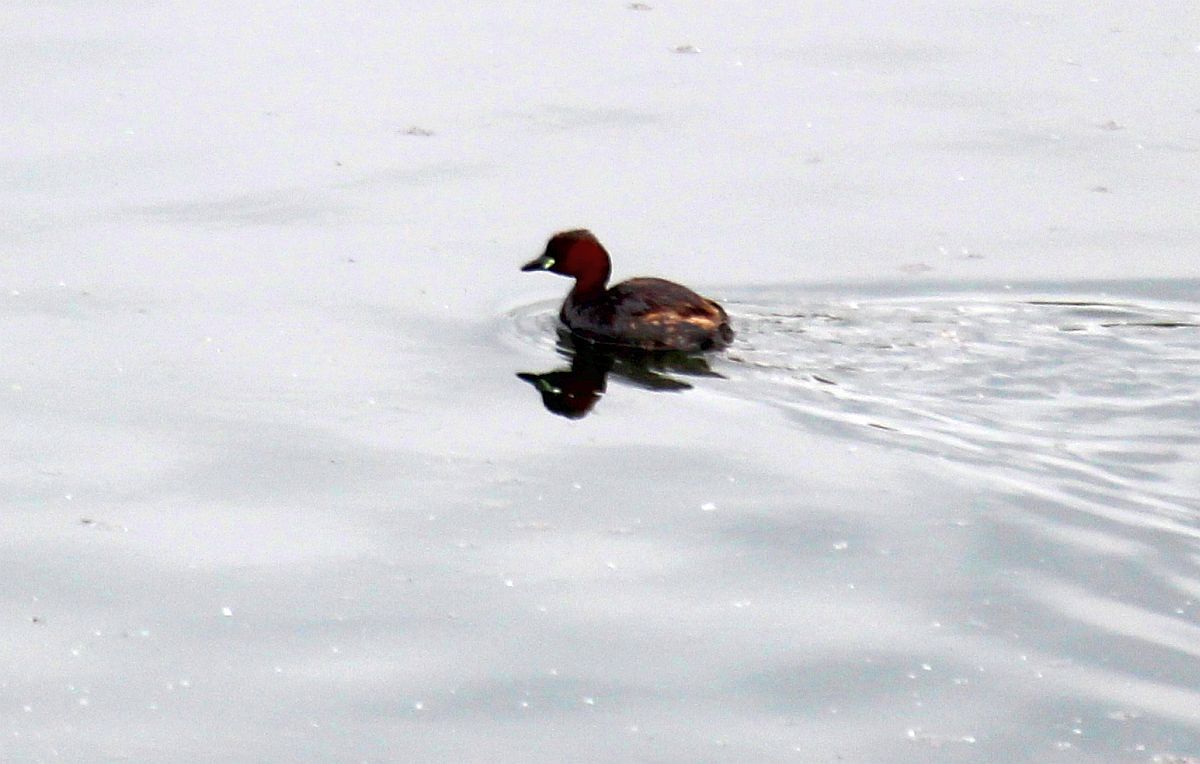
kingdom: Animalia
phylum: Chordata
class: Aves
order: Podicipediformes
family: Podicipedidae
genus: Tachybaptus
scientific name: Tachybaptus ruficollis
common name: Little grebe
